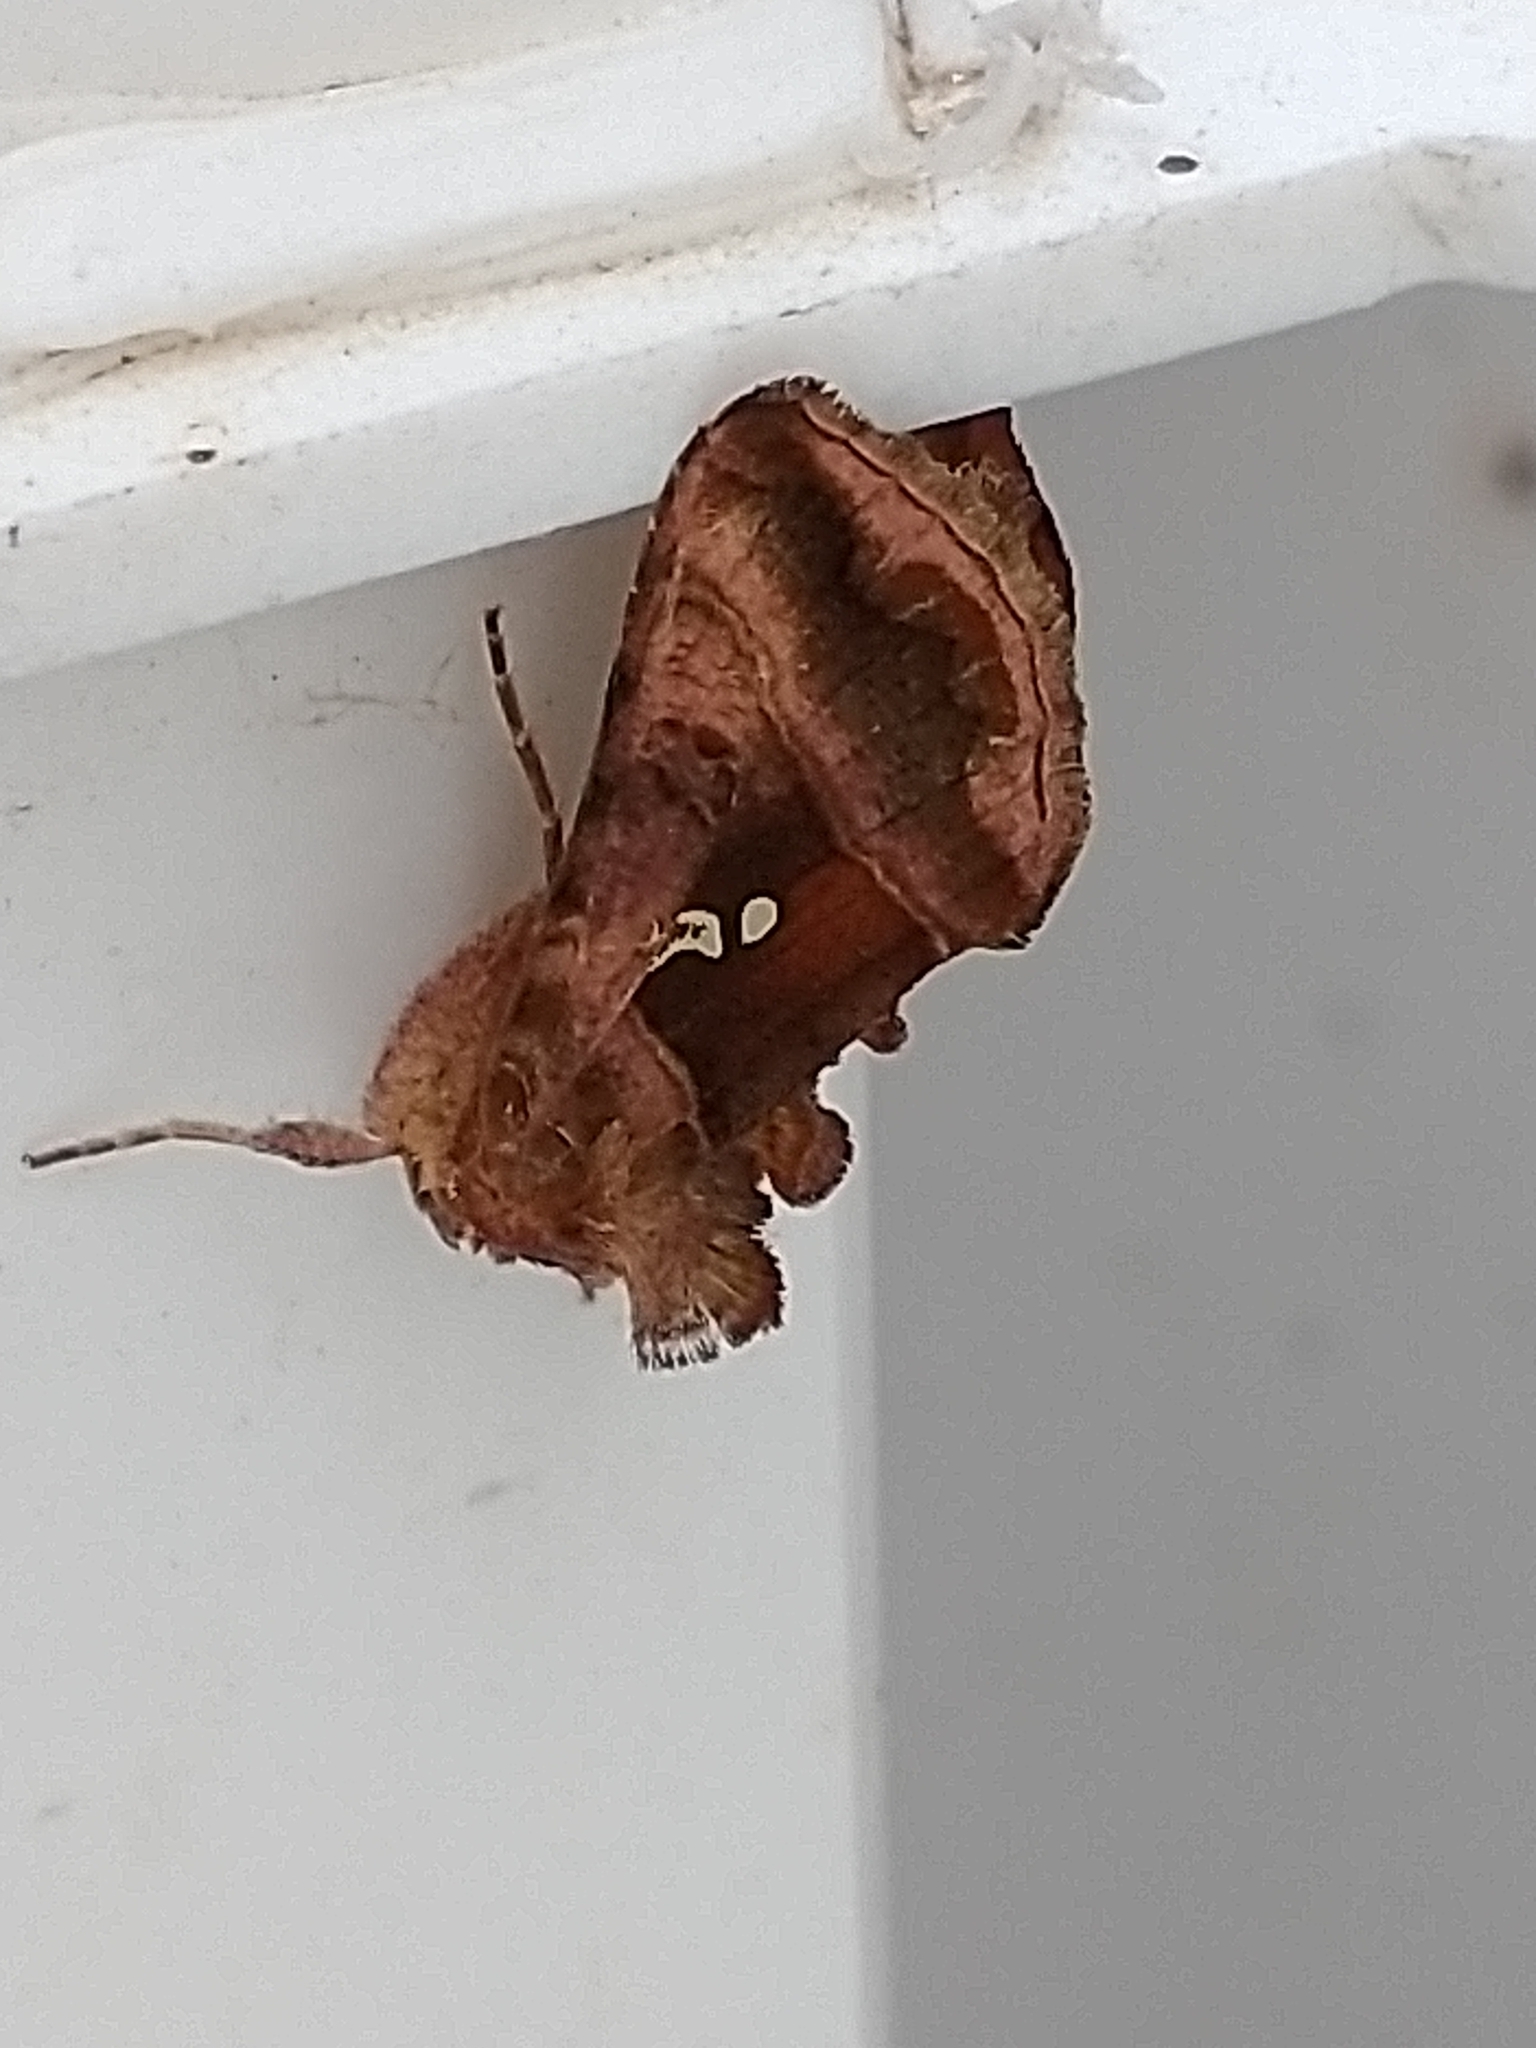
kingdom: Animalia
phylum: Arthropoda
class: Insecta
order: Lepidoptera
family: Noctuidae
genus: Autographa
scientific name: Autographa jota
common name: Plain golden y
